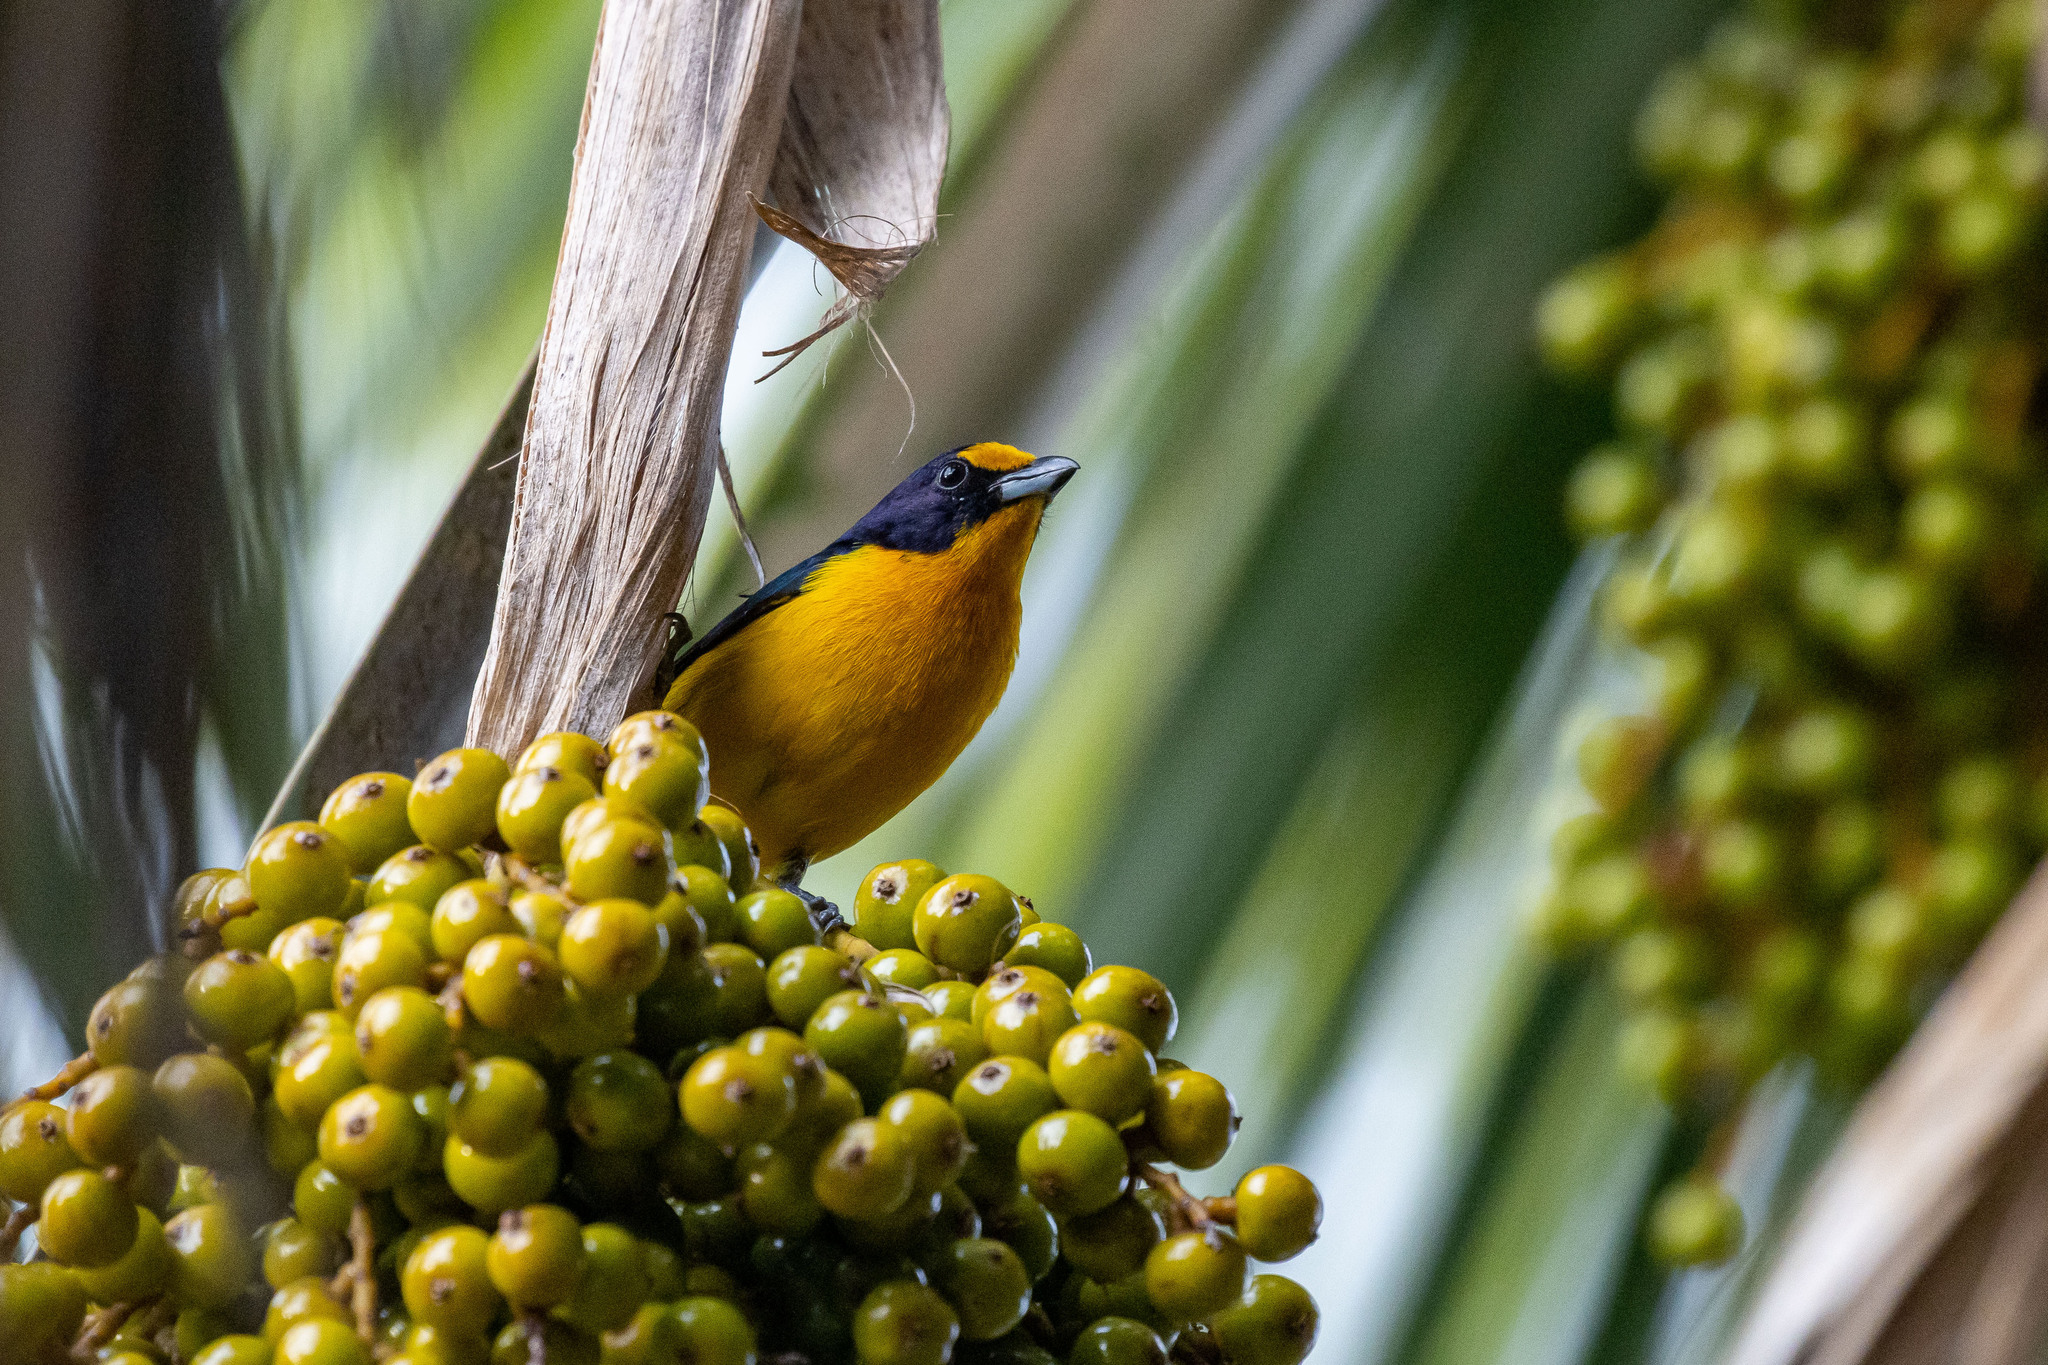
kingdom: Animalia
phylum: Chordata
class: Aves
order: Passeriformes
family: Fringillidae
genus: Euphonia
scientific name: Euphonia violacea
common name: Violaceous euphonia
